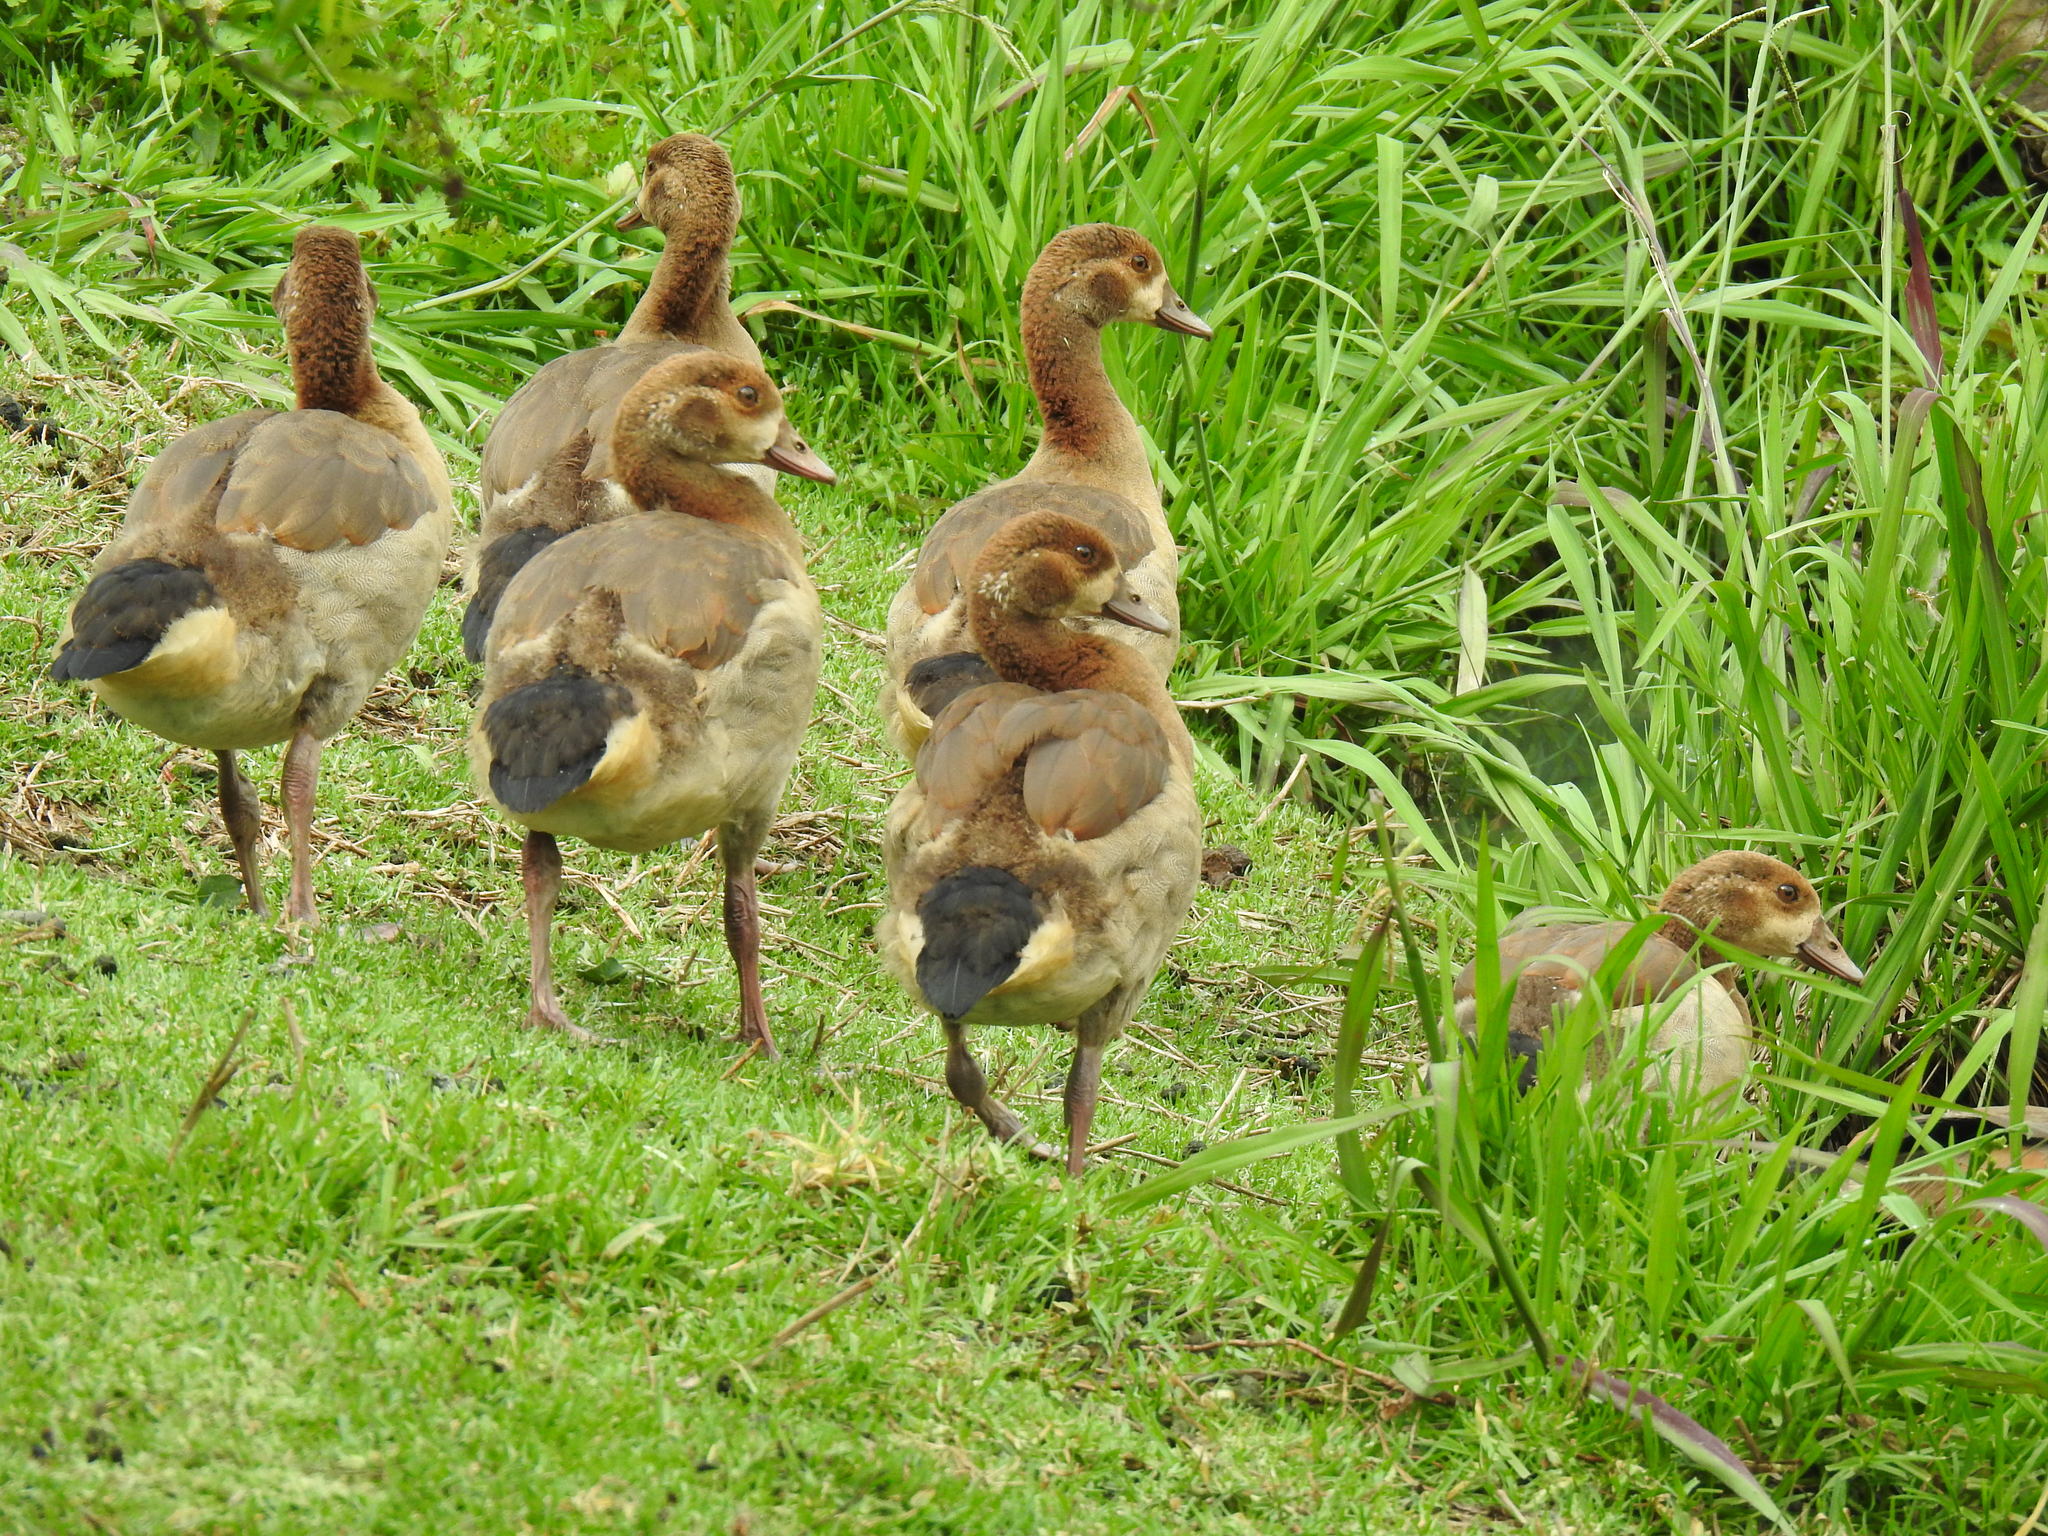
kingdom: Animalia
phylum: Chordata
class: Aves
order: Anseriformes
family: Anatidae
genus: Alopochen
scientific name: Alopochen aegyptiaca
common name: Egyptian goose
